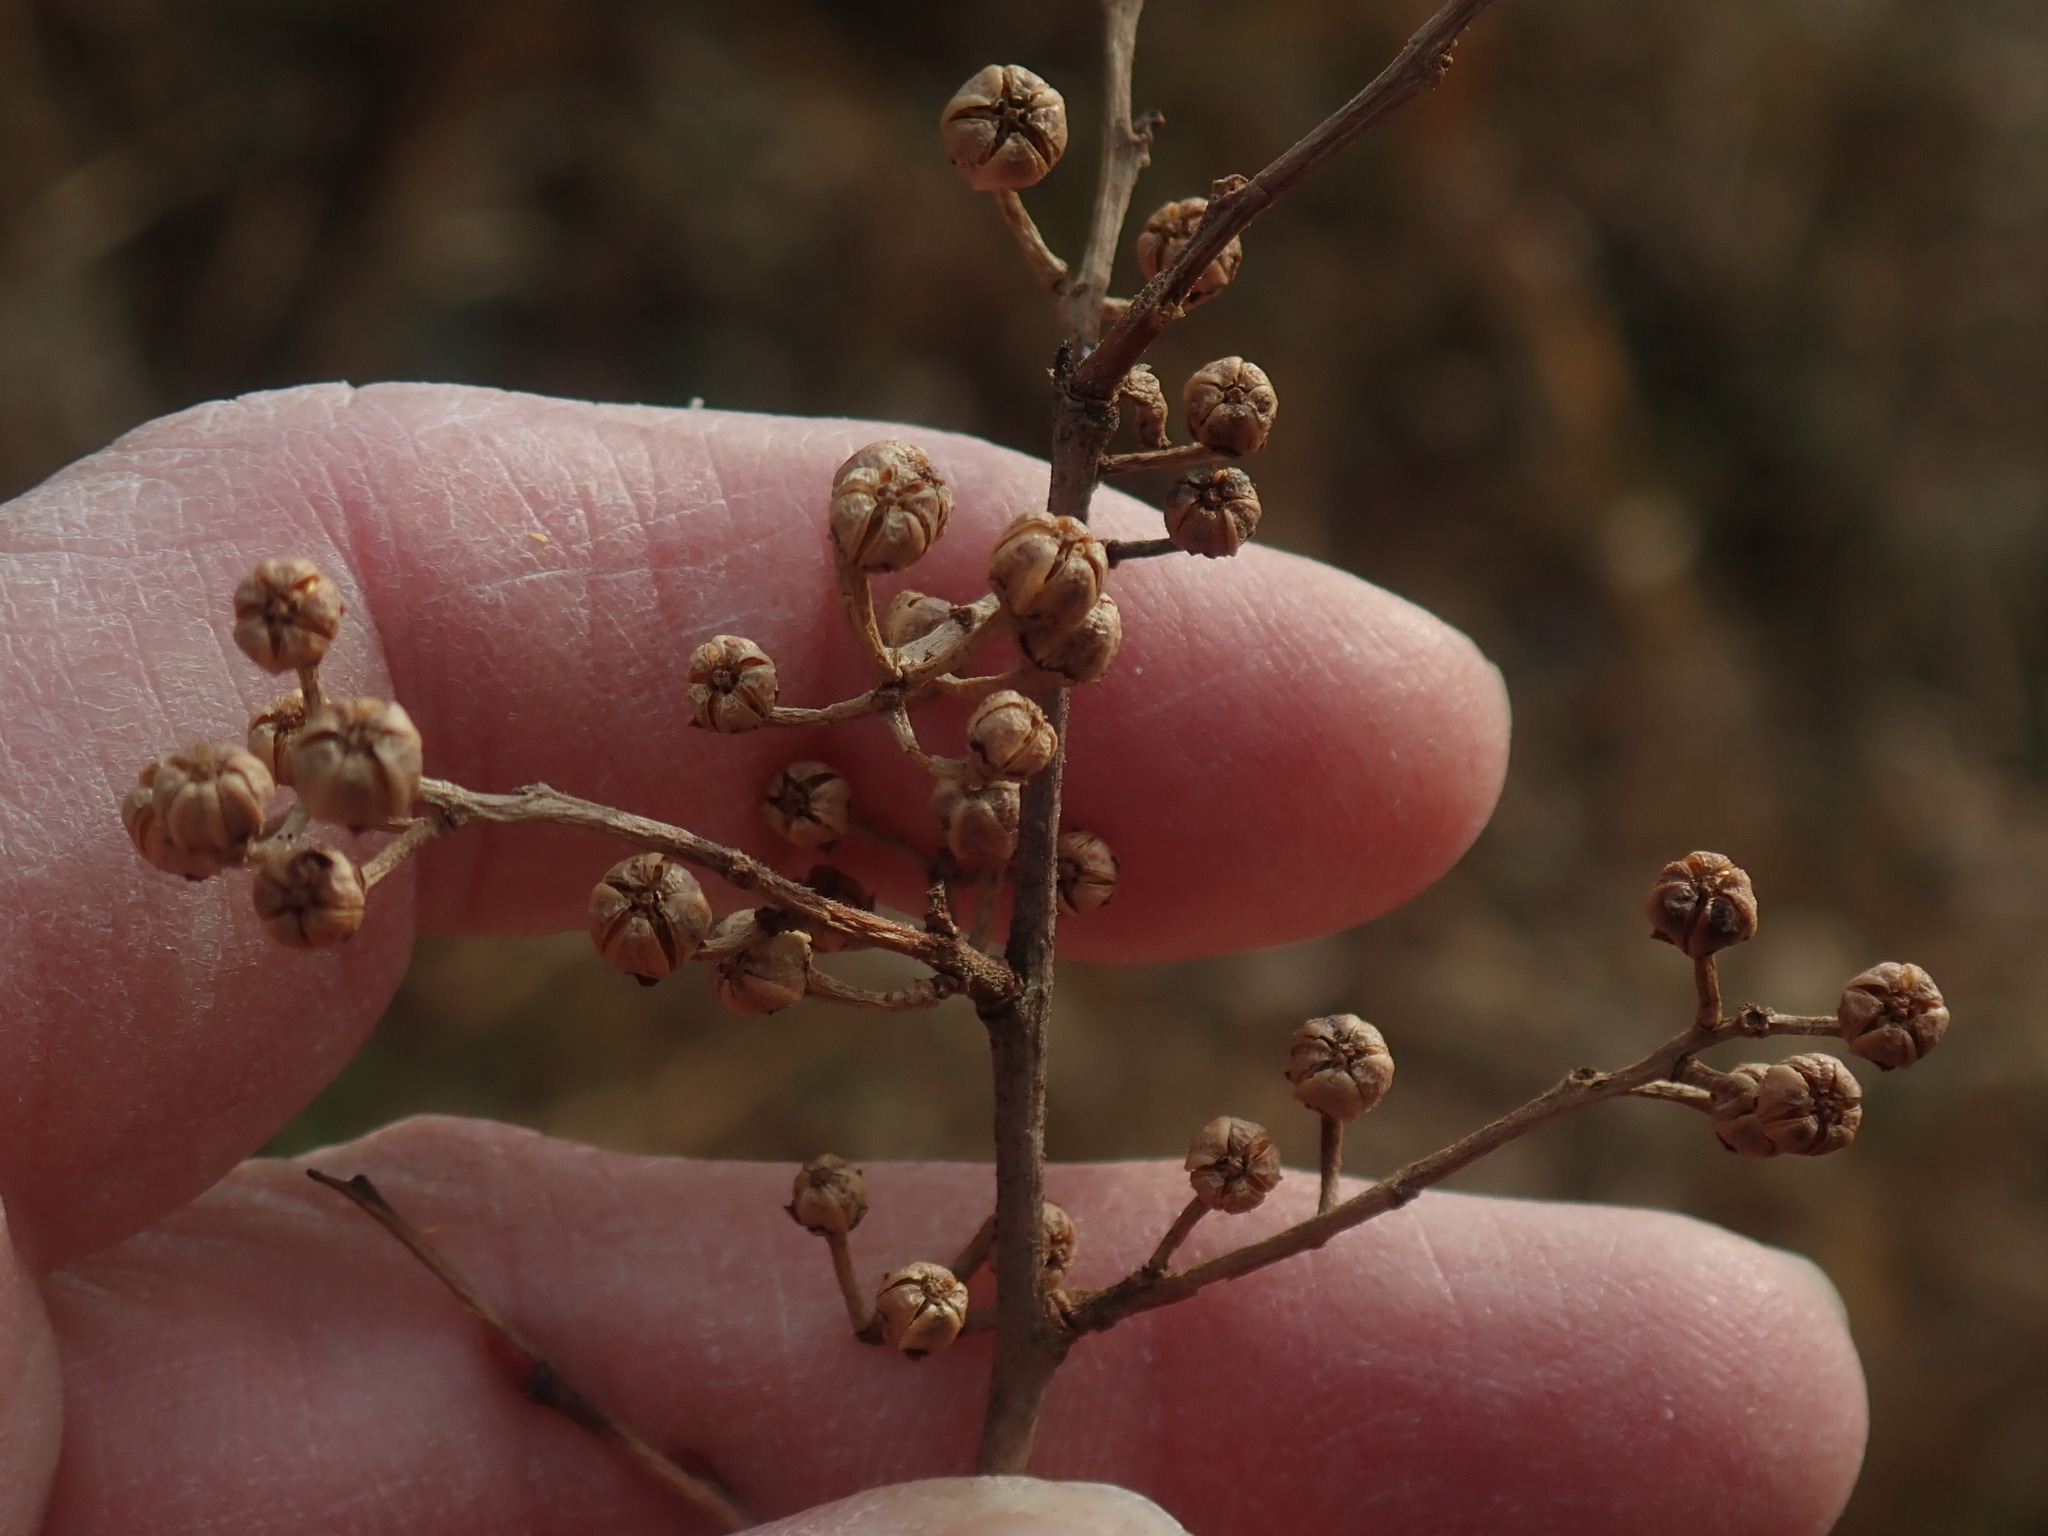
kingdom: Plantae
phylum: Tracheophyta
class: Magnoliopsida
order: Ericales
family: Ericaceae
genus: Lyonia
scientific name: Lyonia ligustrina
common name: Maleberry
